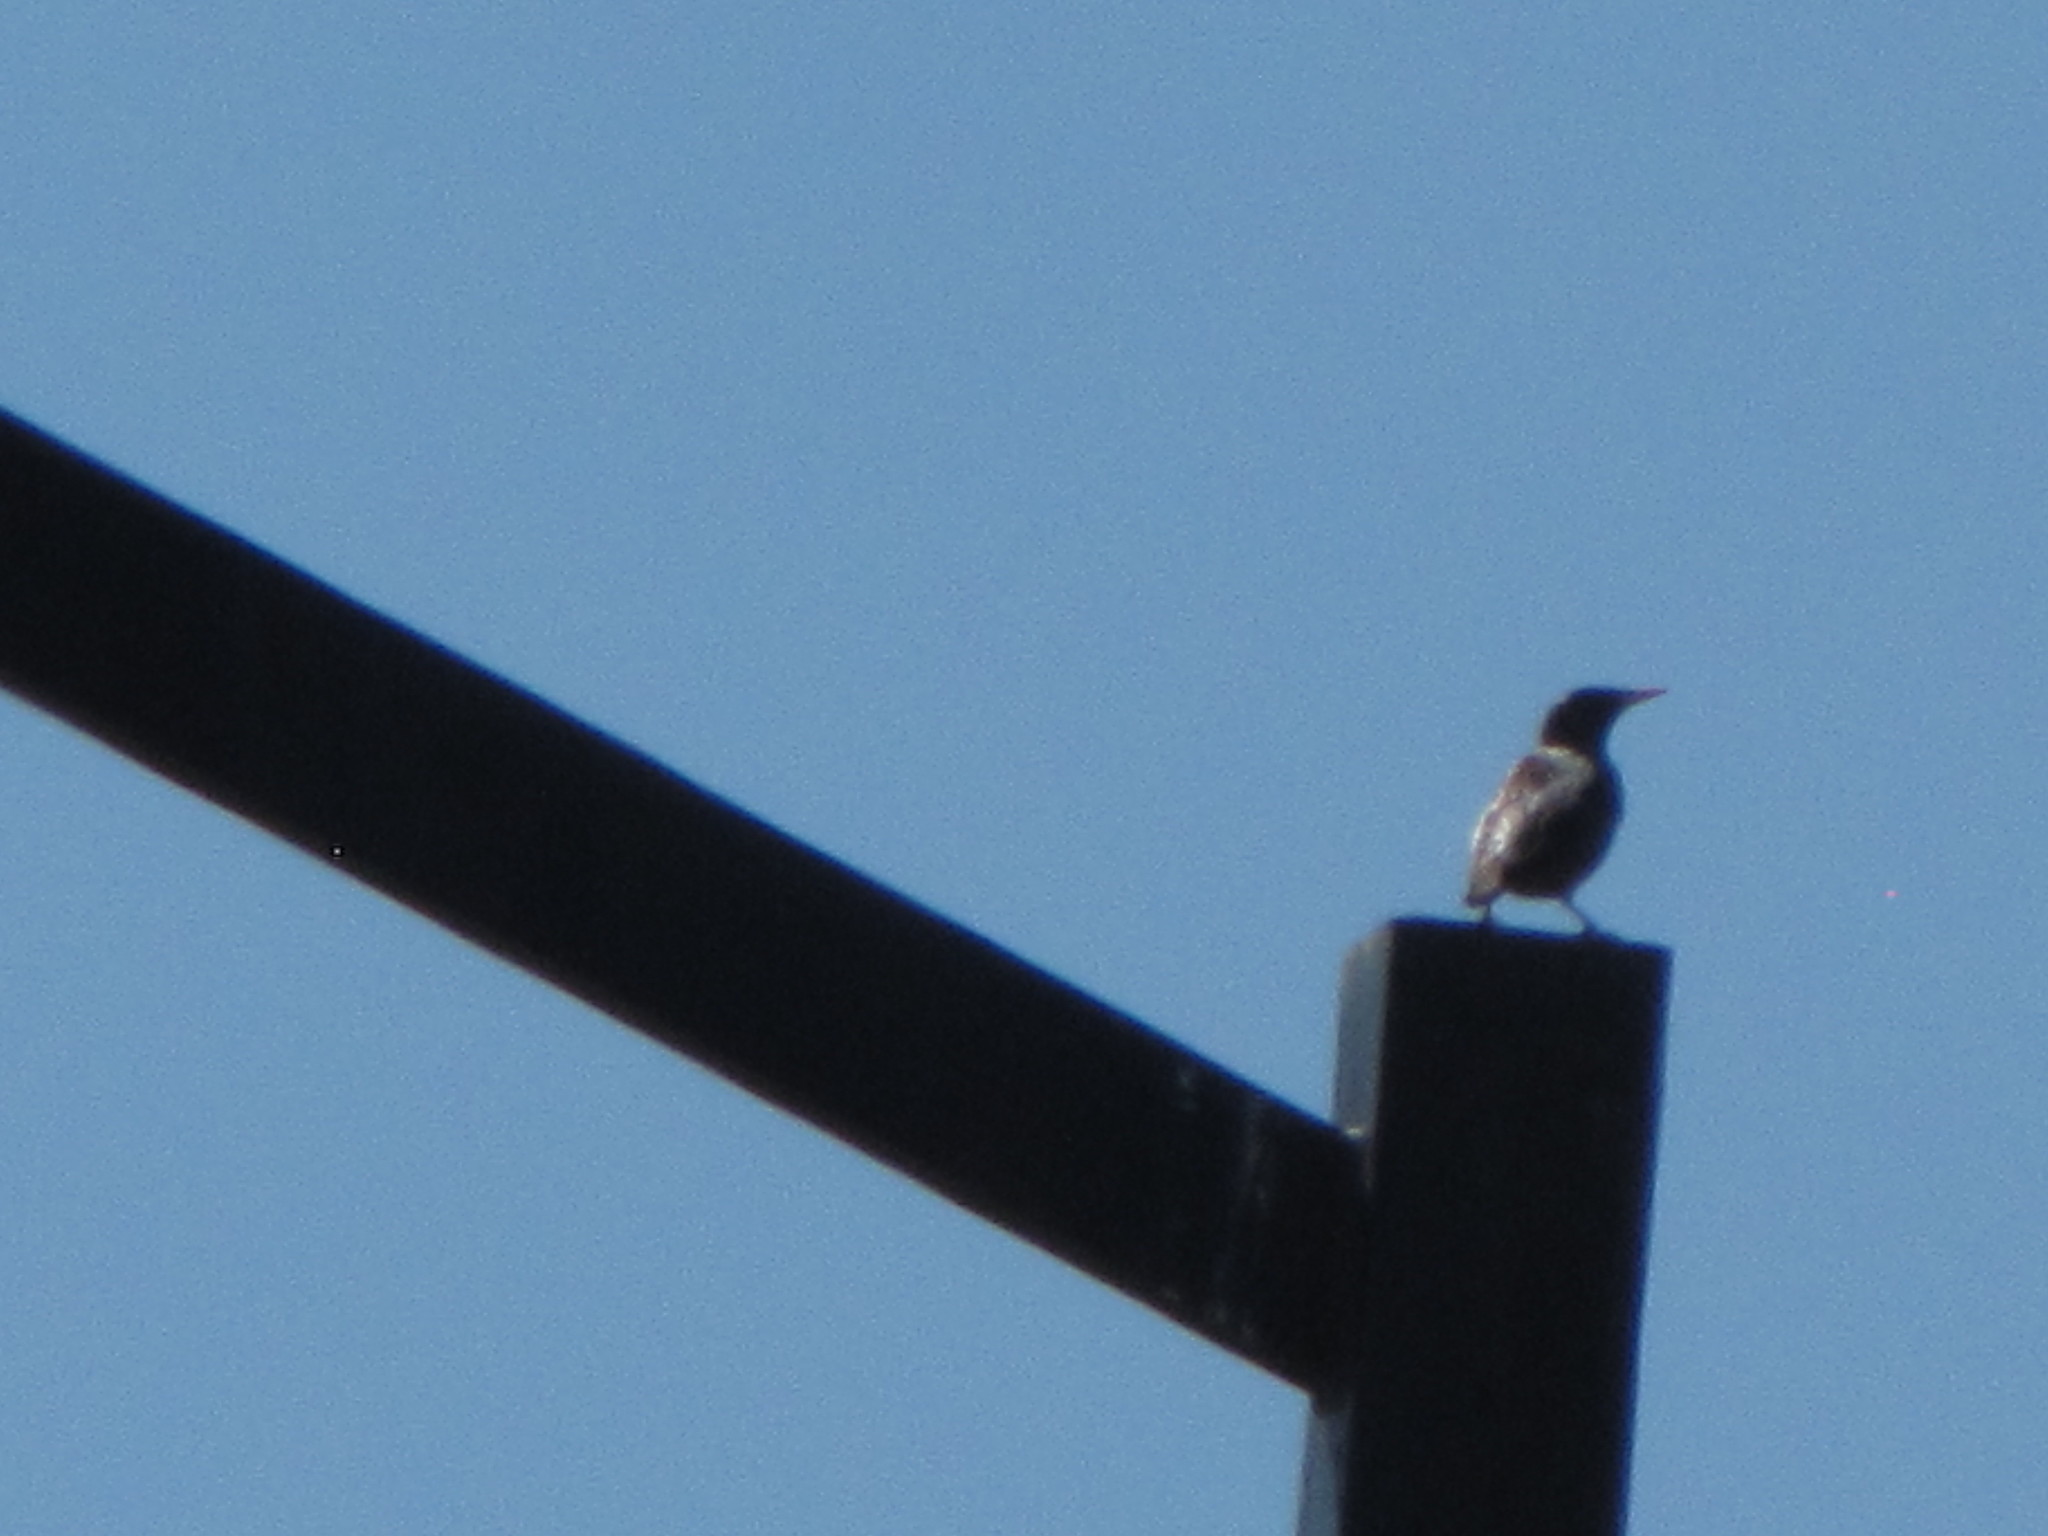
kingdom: Animalia
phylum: Chordata
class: Aves
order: Passeriformes
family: Sturnidae
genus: Sturnus
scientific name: Sturnus vulgaris
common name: Common starling
